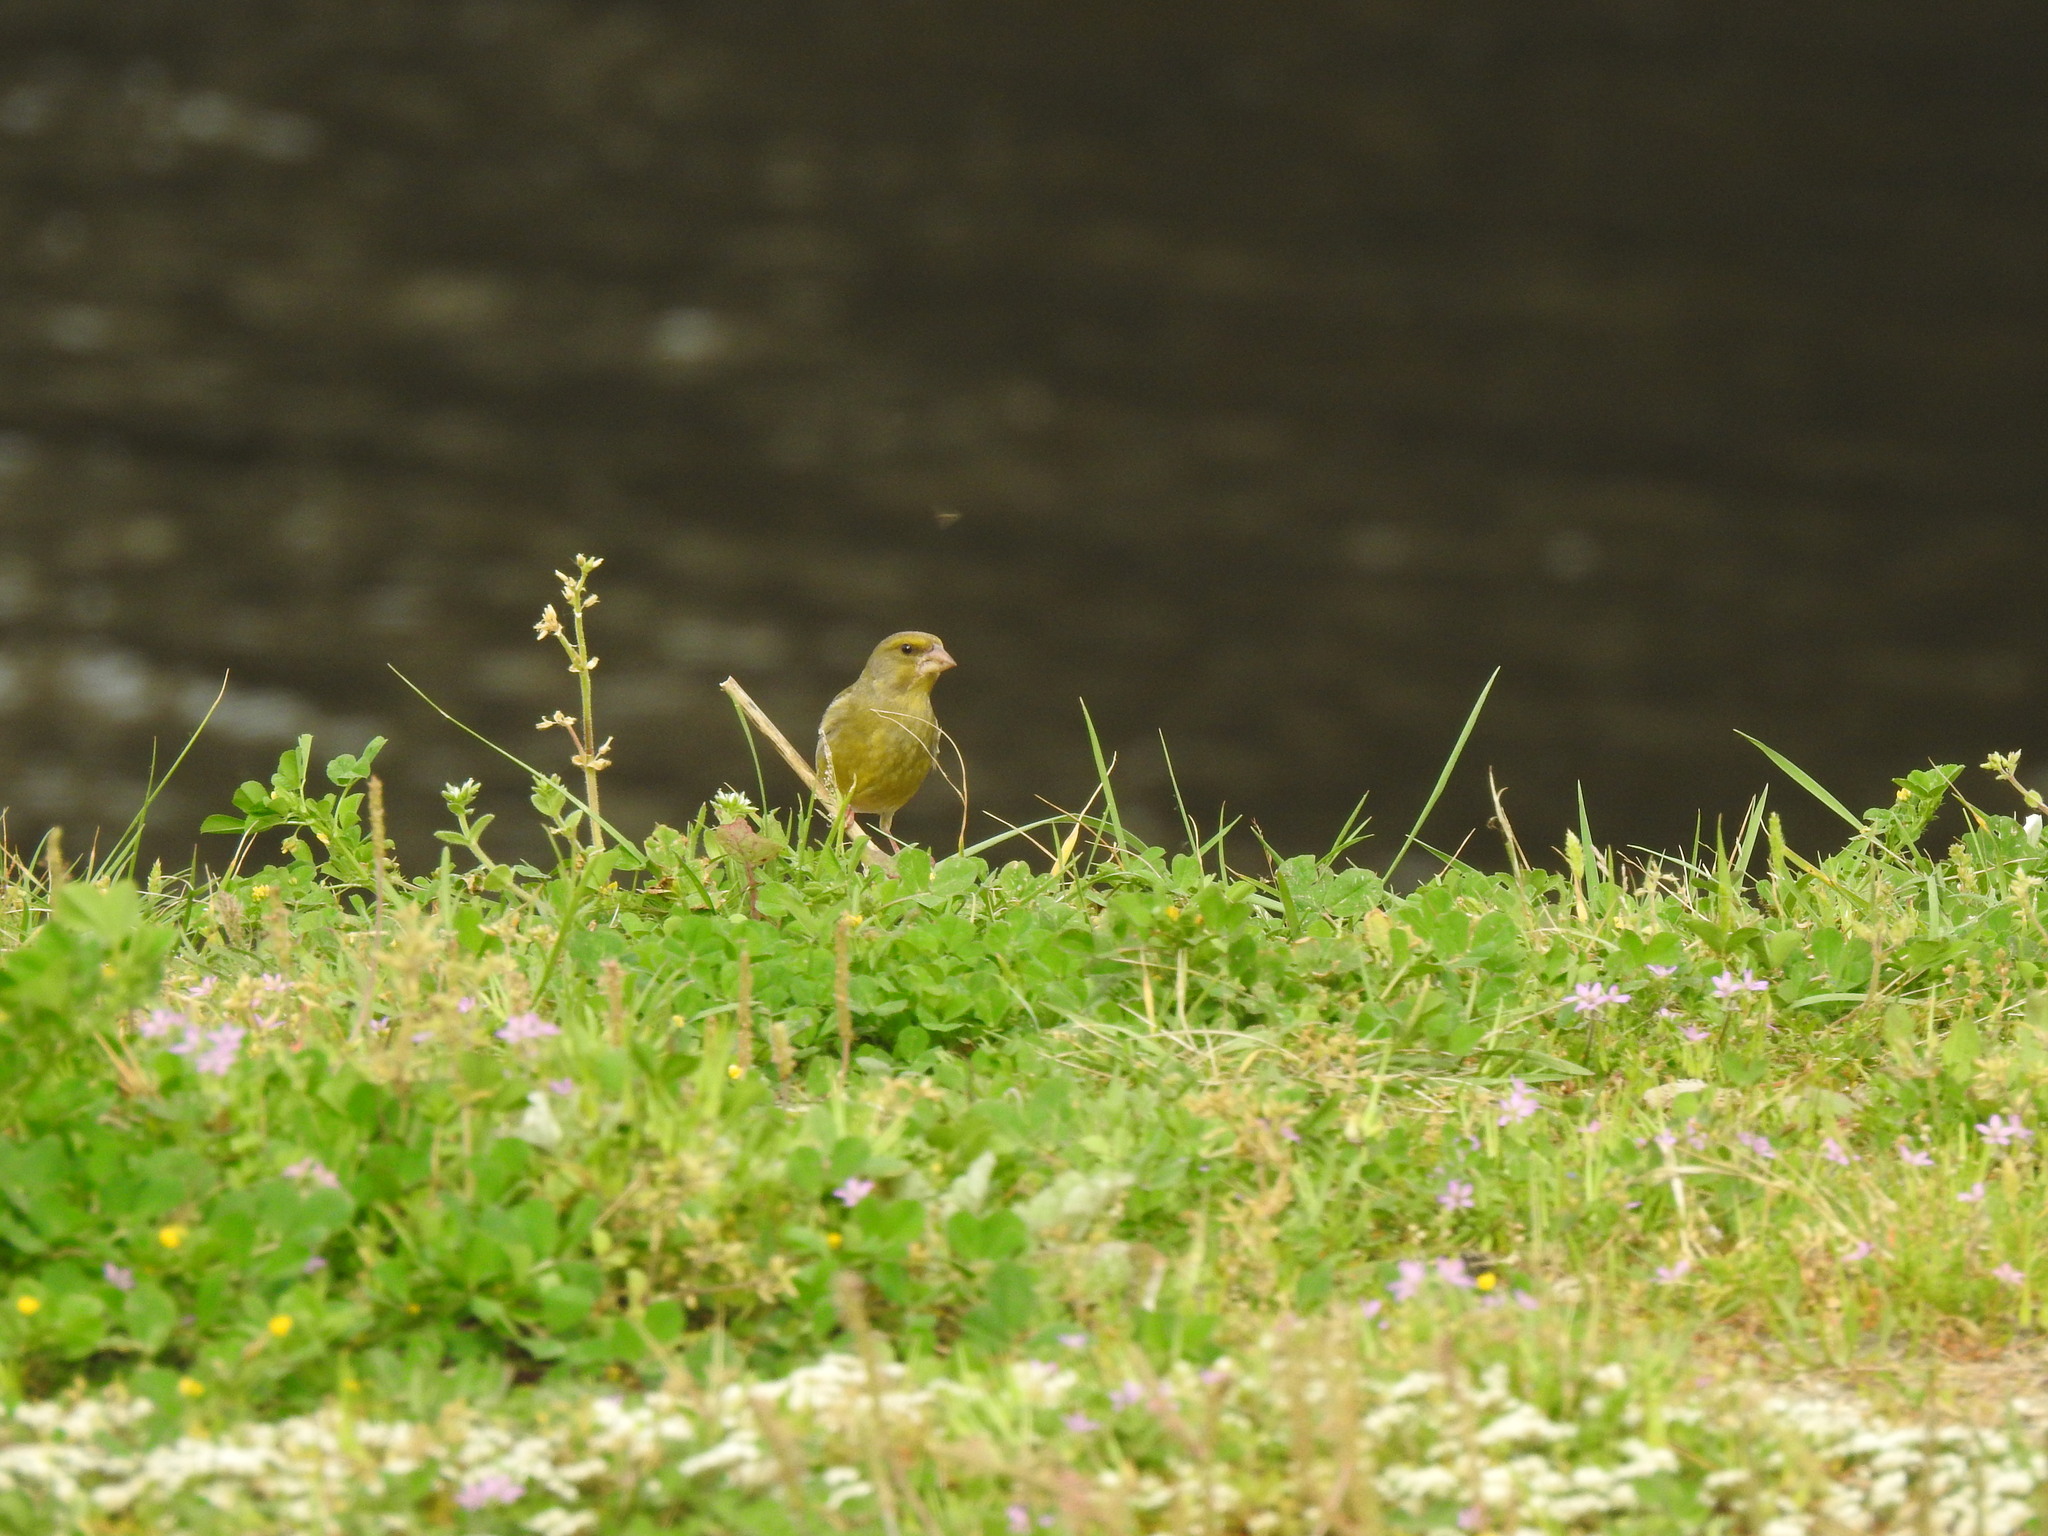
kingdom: Plantae
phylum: Tracheophyta
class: Liliopsida
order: Poales
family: Poaceae
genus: Chloris
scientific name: Chloris chloris
